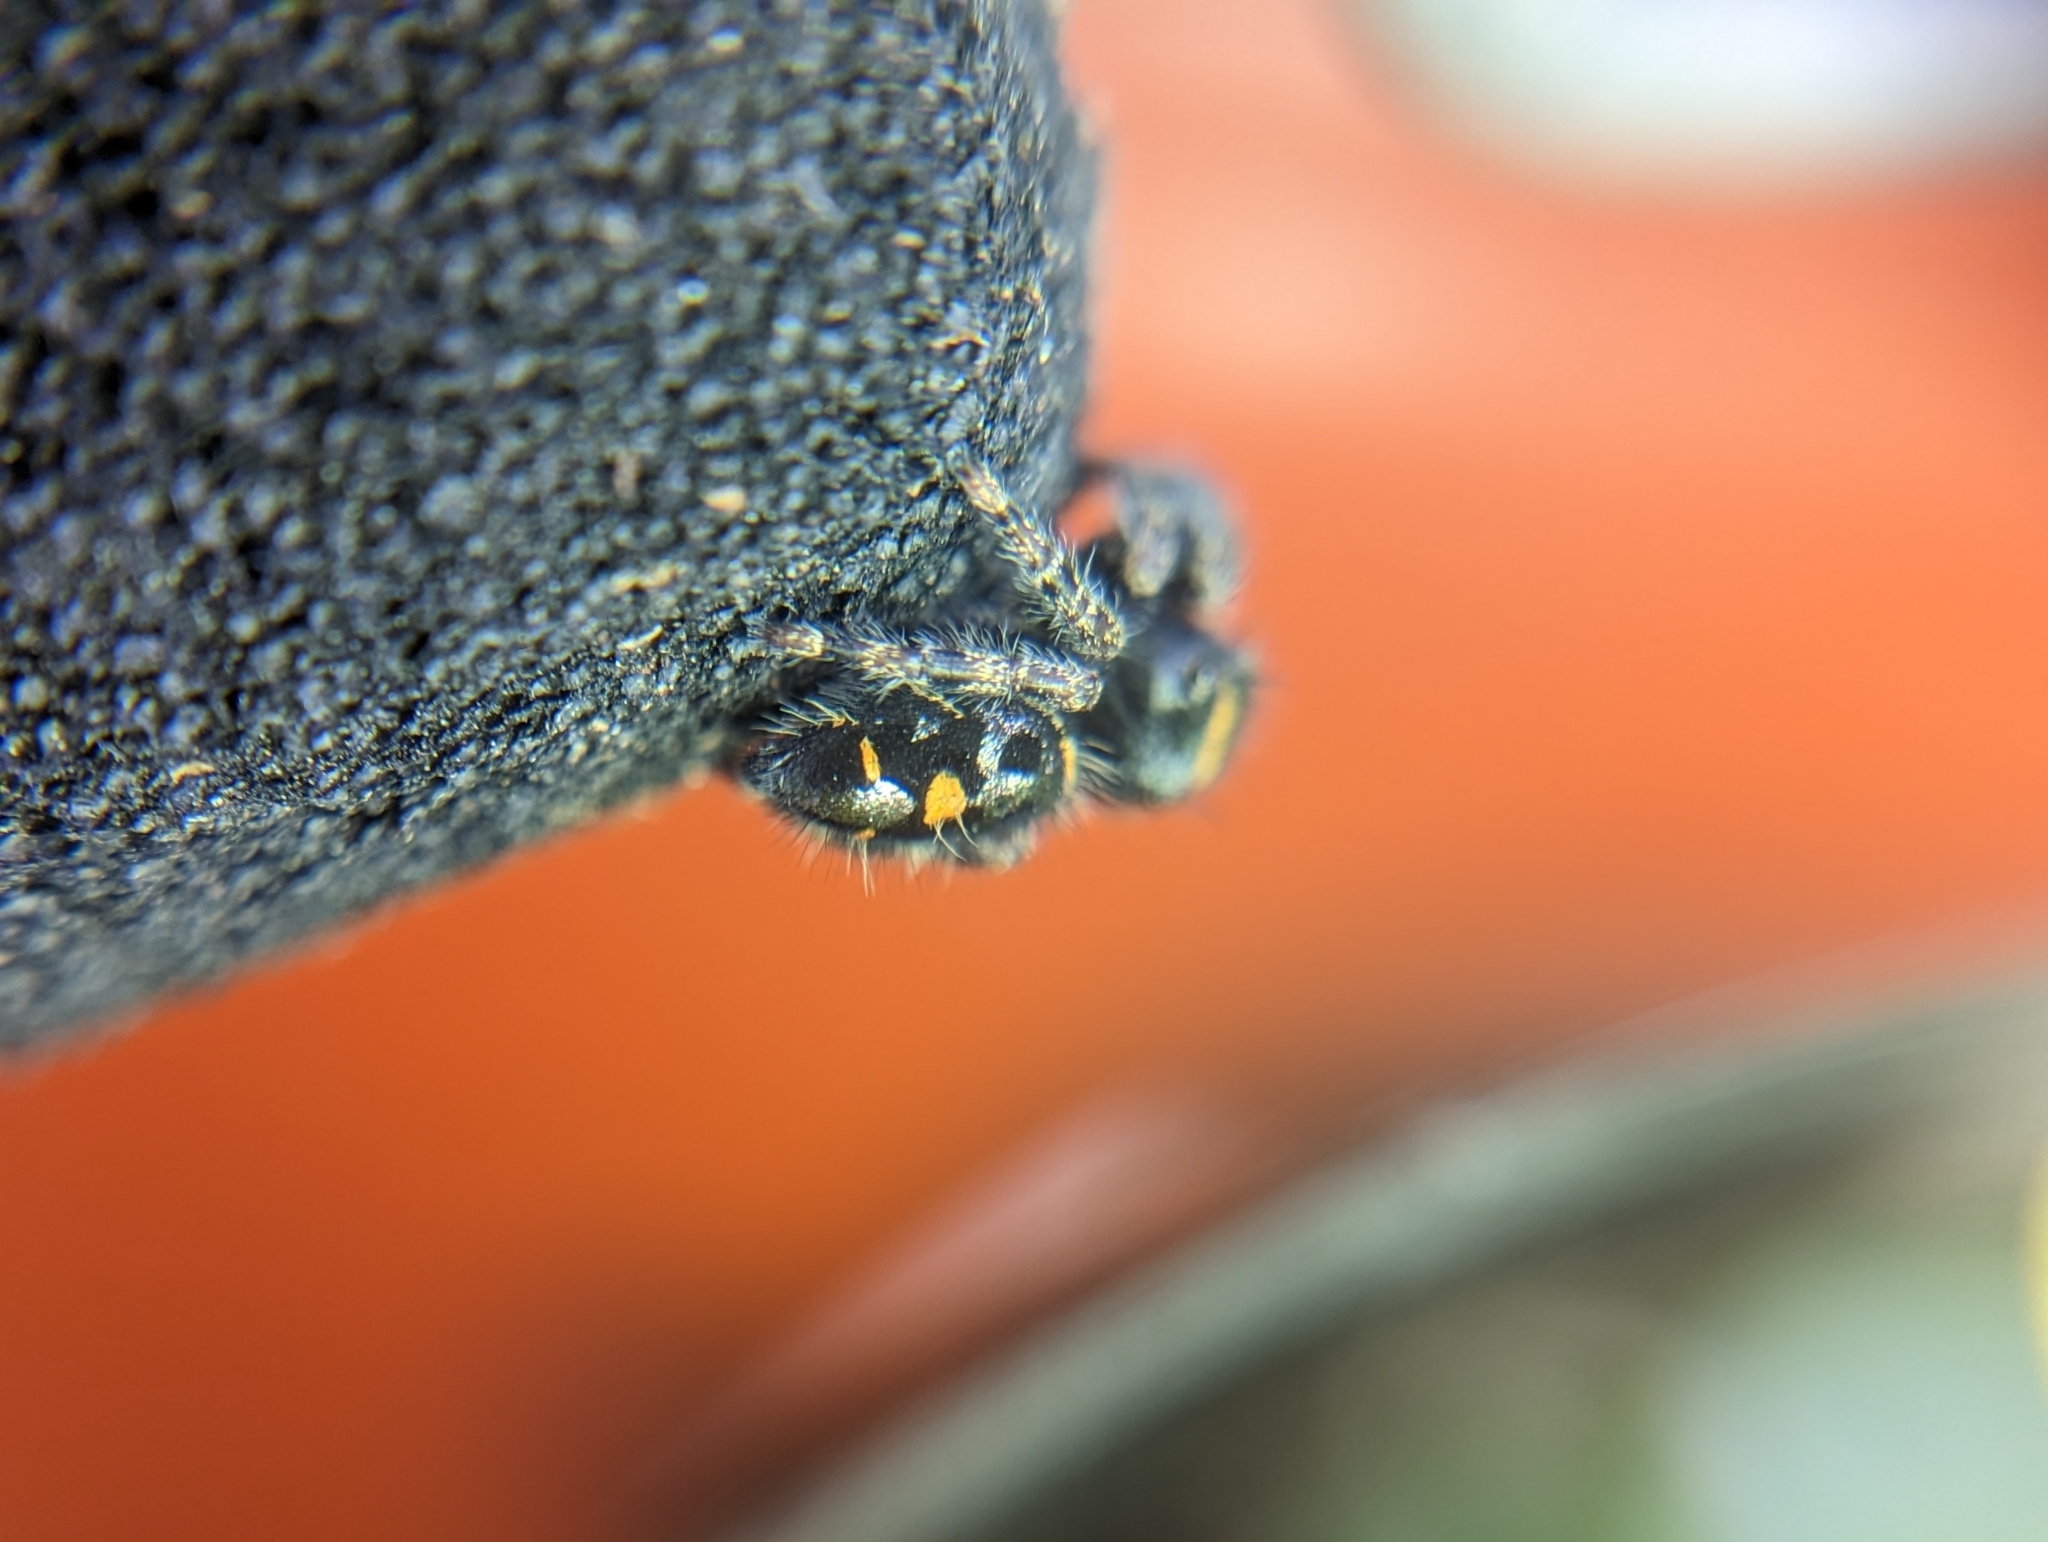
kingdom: Animalia
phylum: Arthropoda
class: Arachnida
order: Araneae
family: Salticidae
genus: Phidippus
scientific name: Phidippus audax
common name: Bold jumper
